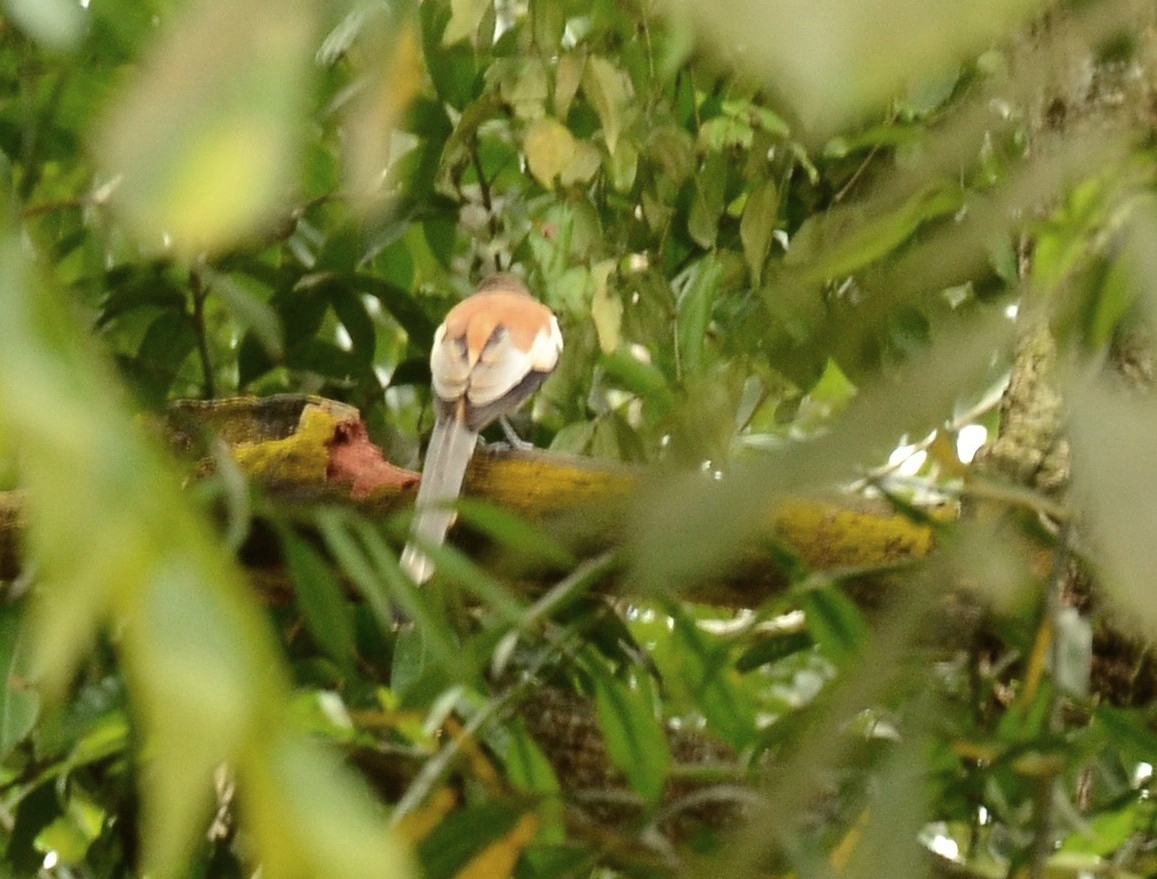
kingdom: Animalia
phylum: Chordata
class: Aves
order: Passeriformes
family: Corvidae
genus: Dendrocitta
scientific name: Dendrocitta vagabunda
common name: Rufous treepie
